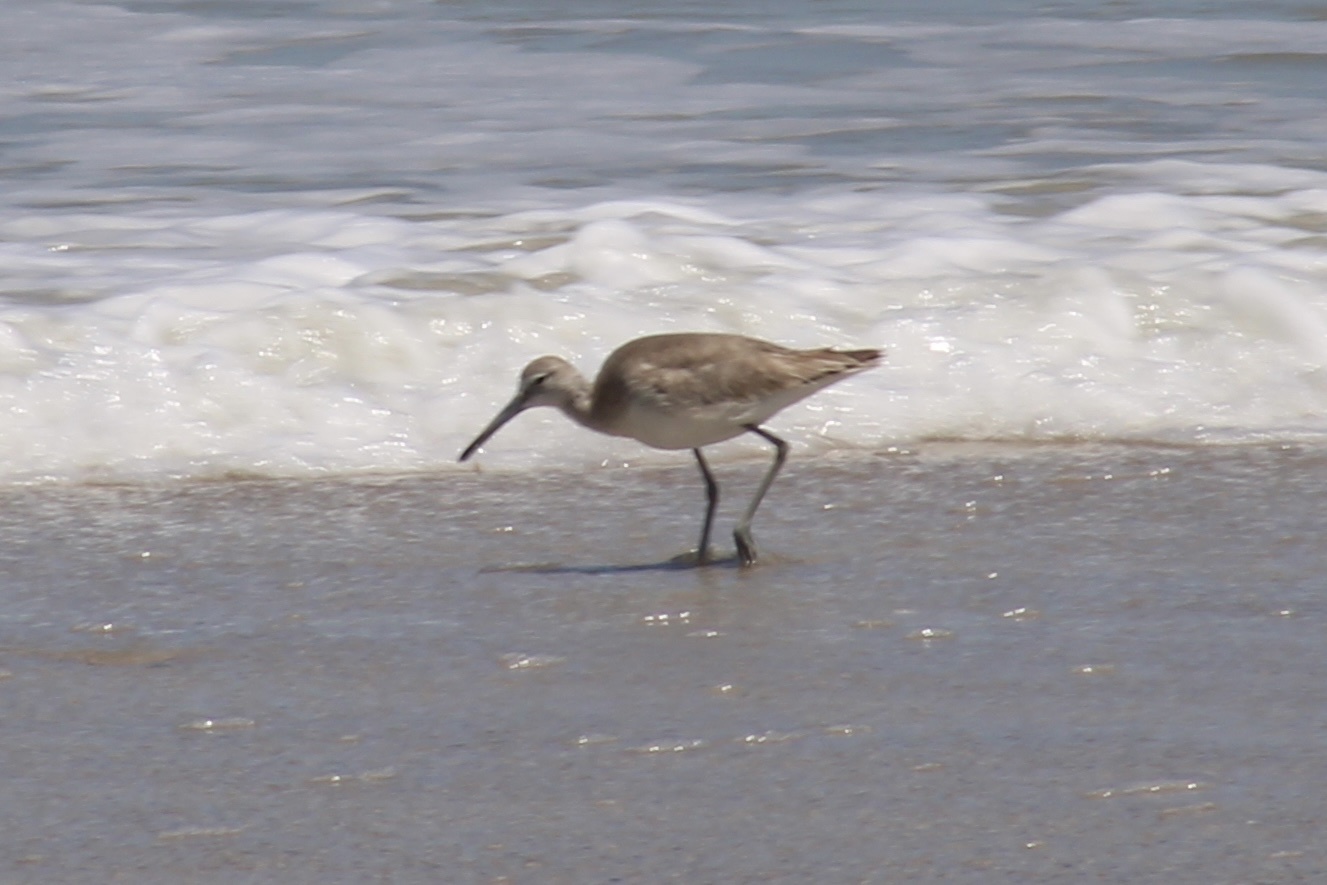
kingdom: Animalia
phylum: Chordata
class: Aves
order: Charadriiformes
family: Scolopacidae
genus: Tringa
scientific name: Tringa semipalmata
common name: Willet
